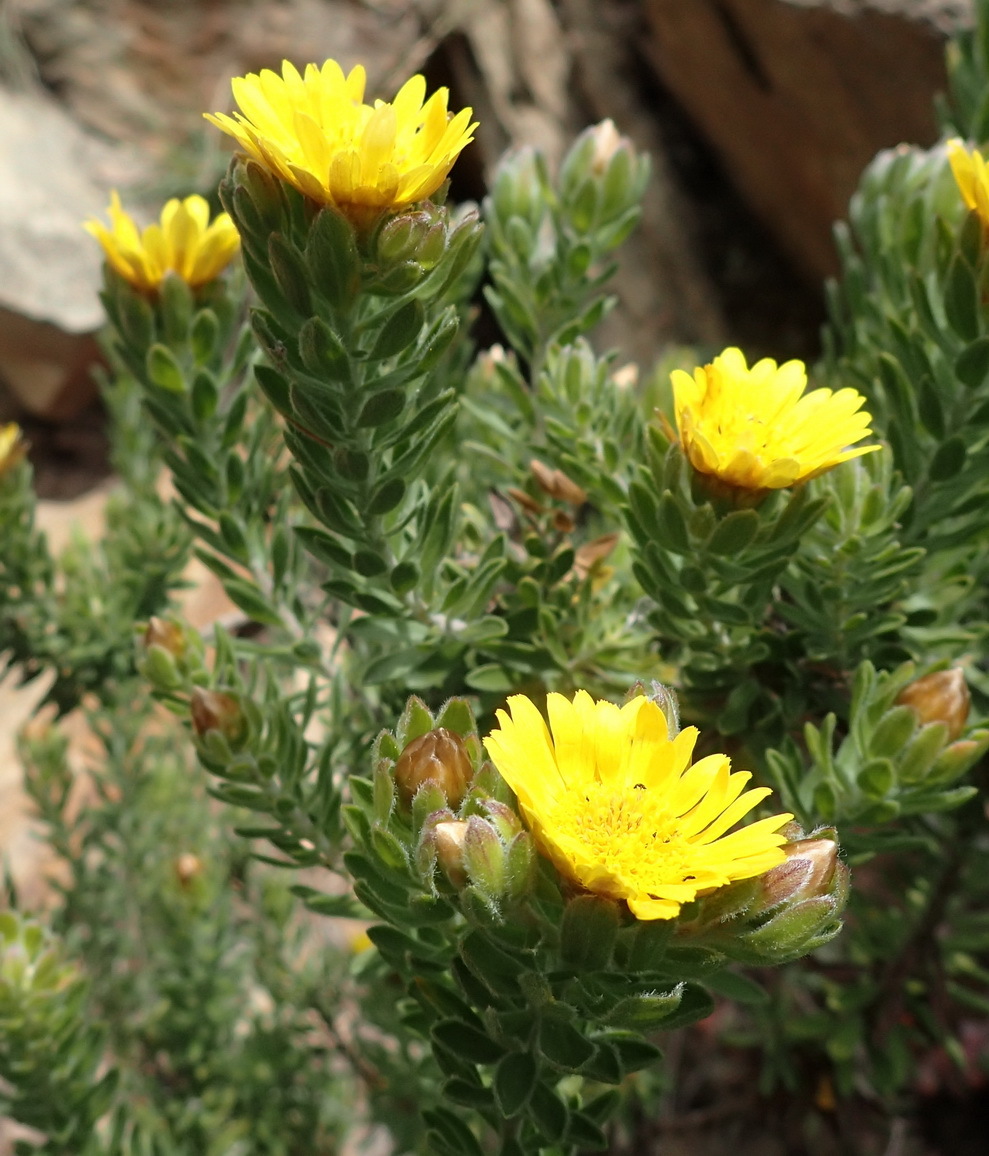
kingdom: Plantae
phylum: Tracheophyta
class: Magnoliopsida
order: Asterales
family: Asteraceae
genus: Oedera
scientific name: Oedera calycina
